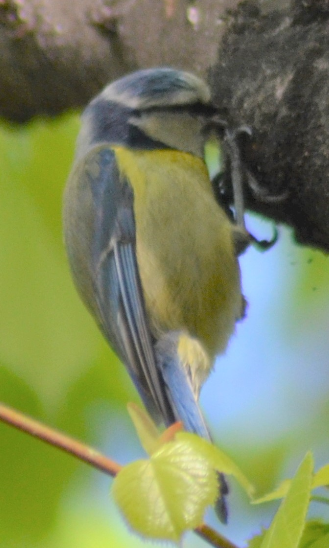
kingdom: Animalia
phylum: Chordata
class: Aves
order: Passeriformes
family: Paridae
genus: Cyanistes
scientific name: Cyanistes caeruleus
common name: Eurasian blue tit
